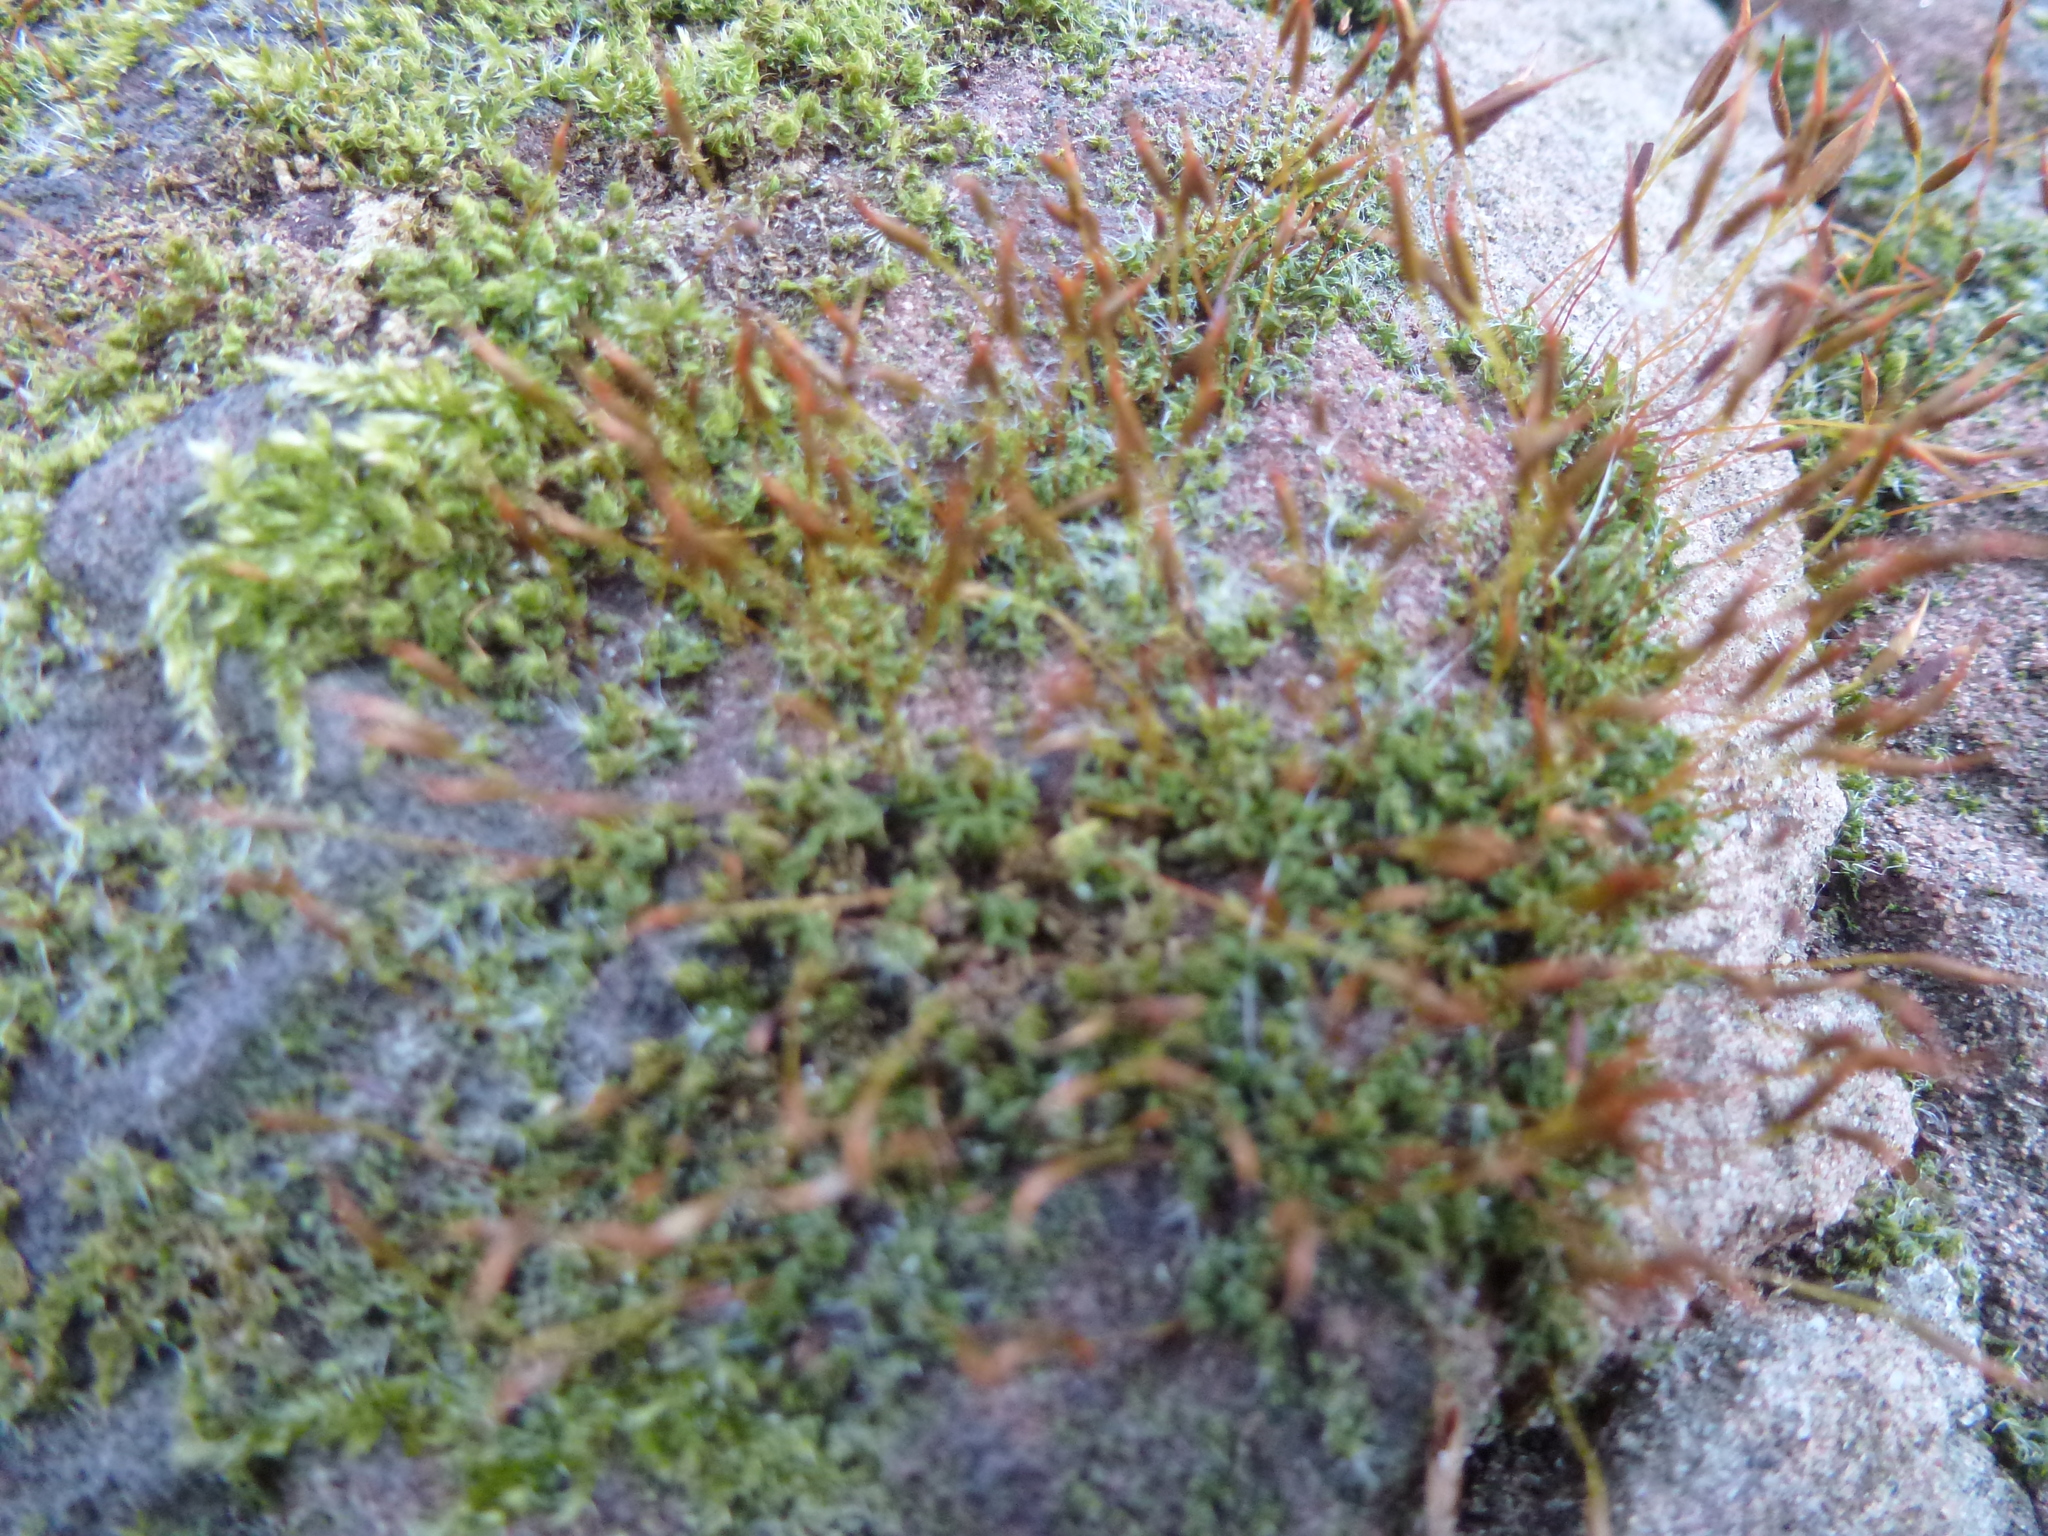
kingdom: Plantae
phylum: Bryophyta
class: Bryopsida
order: Pottiales
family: Pottiaceae
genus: Tortula
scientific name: Tortula muralis
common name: Wall screw-moss
